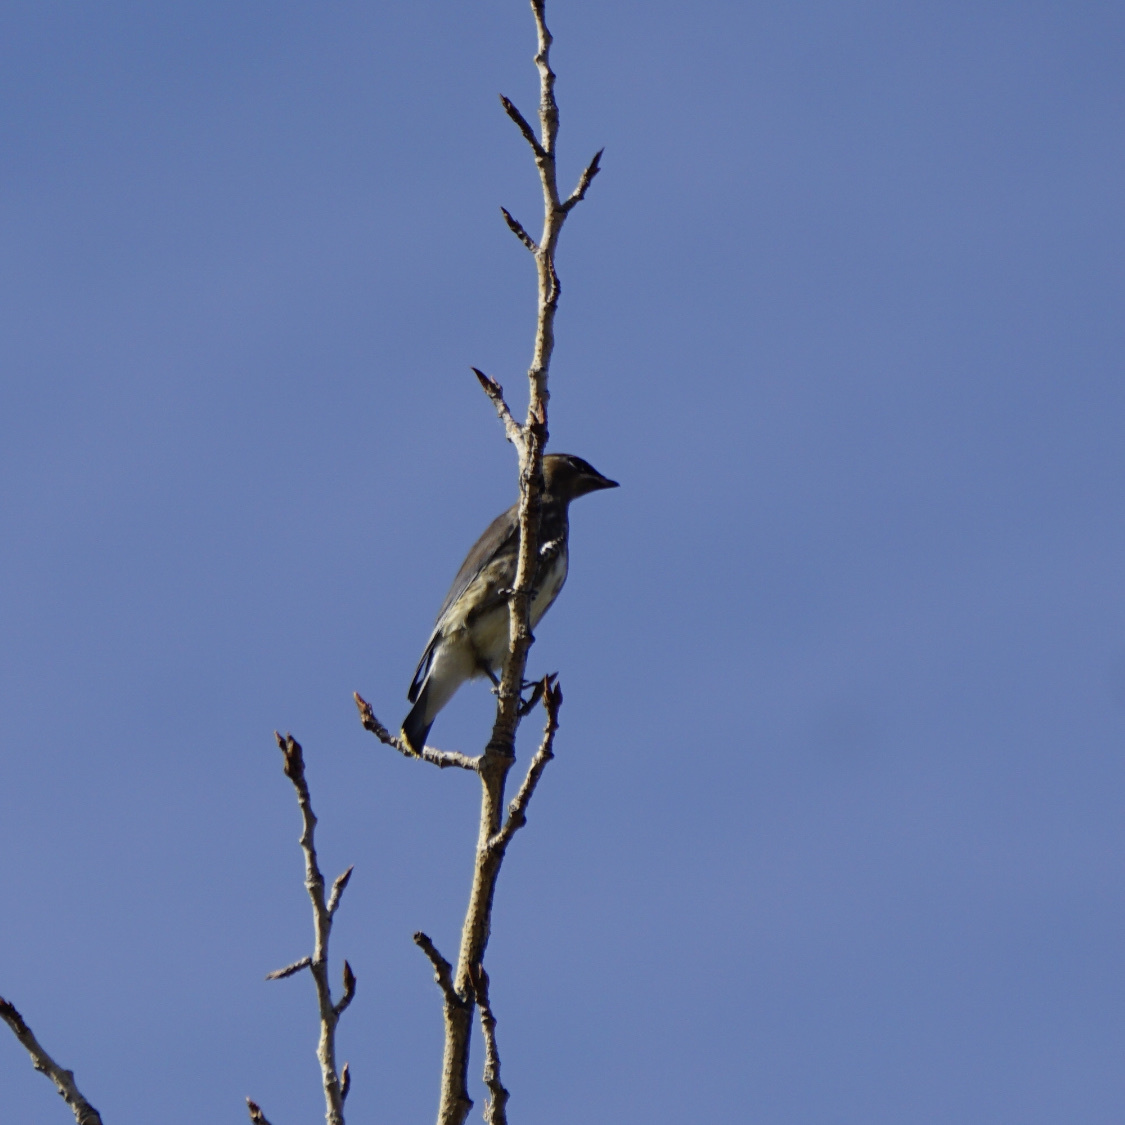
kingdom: Animalia
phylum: Chordata
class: Aves
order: Passeriformes
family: Bombycillidae
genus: Bombycilla
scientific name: Bombycilla cedrorum
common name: Cedar waxwing
